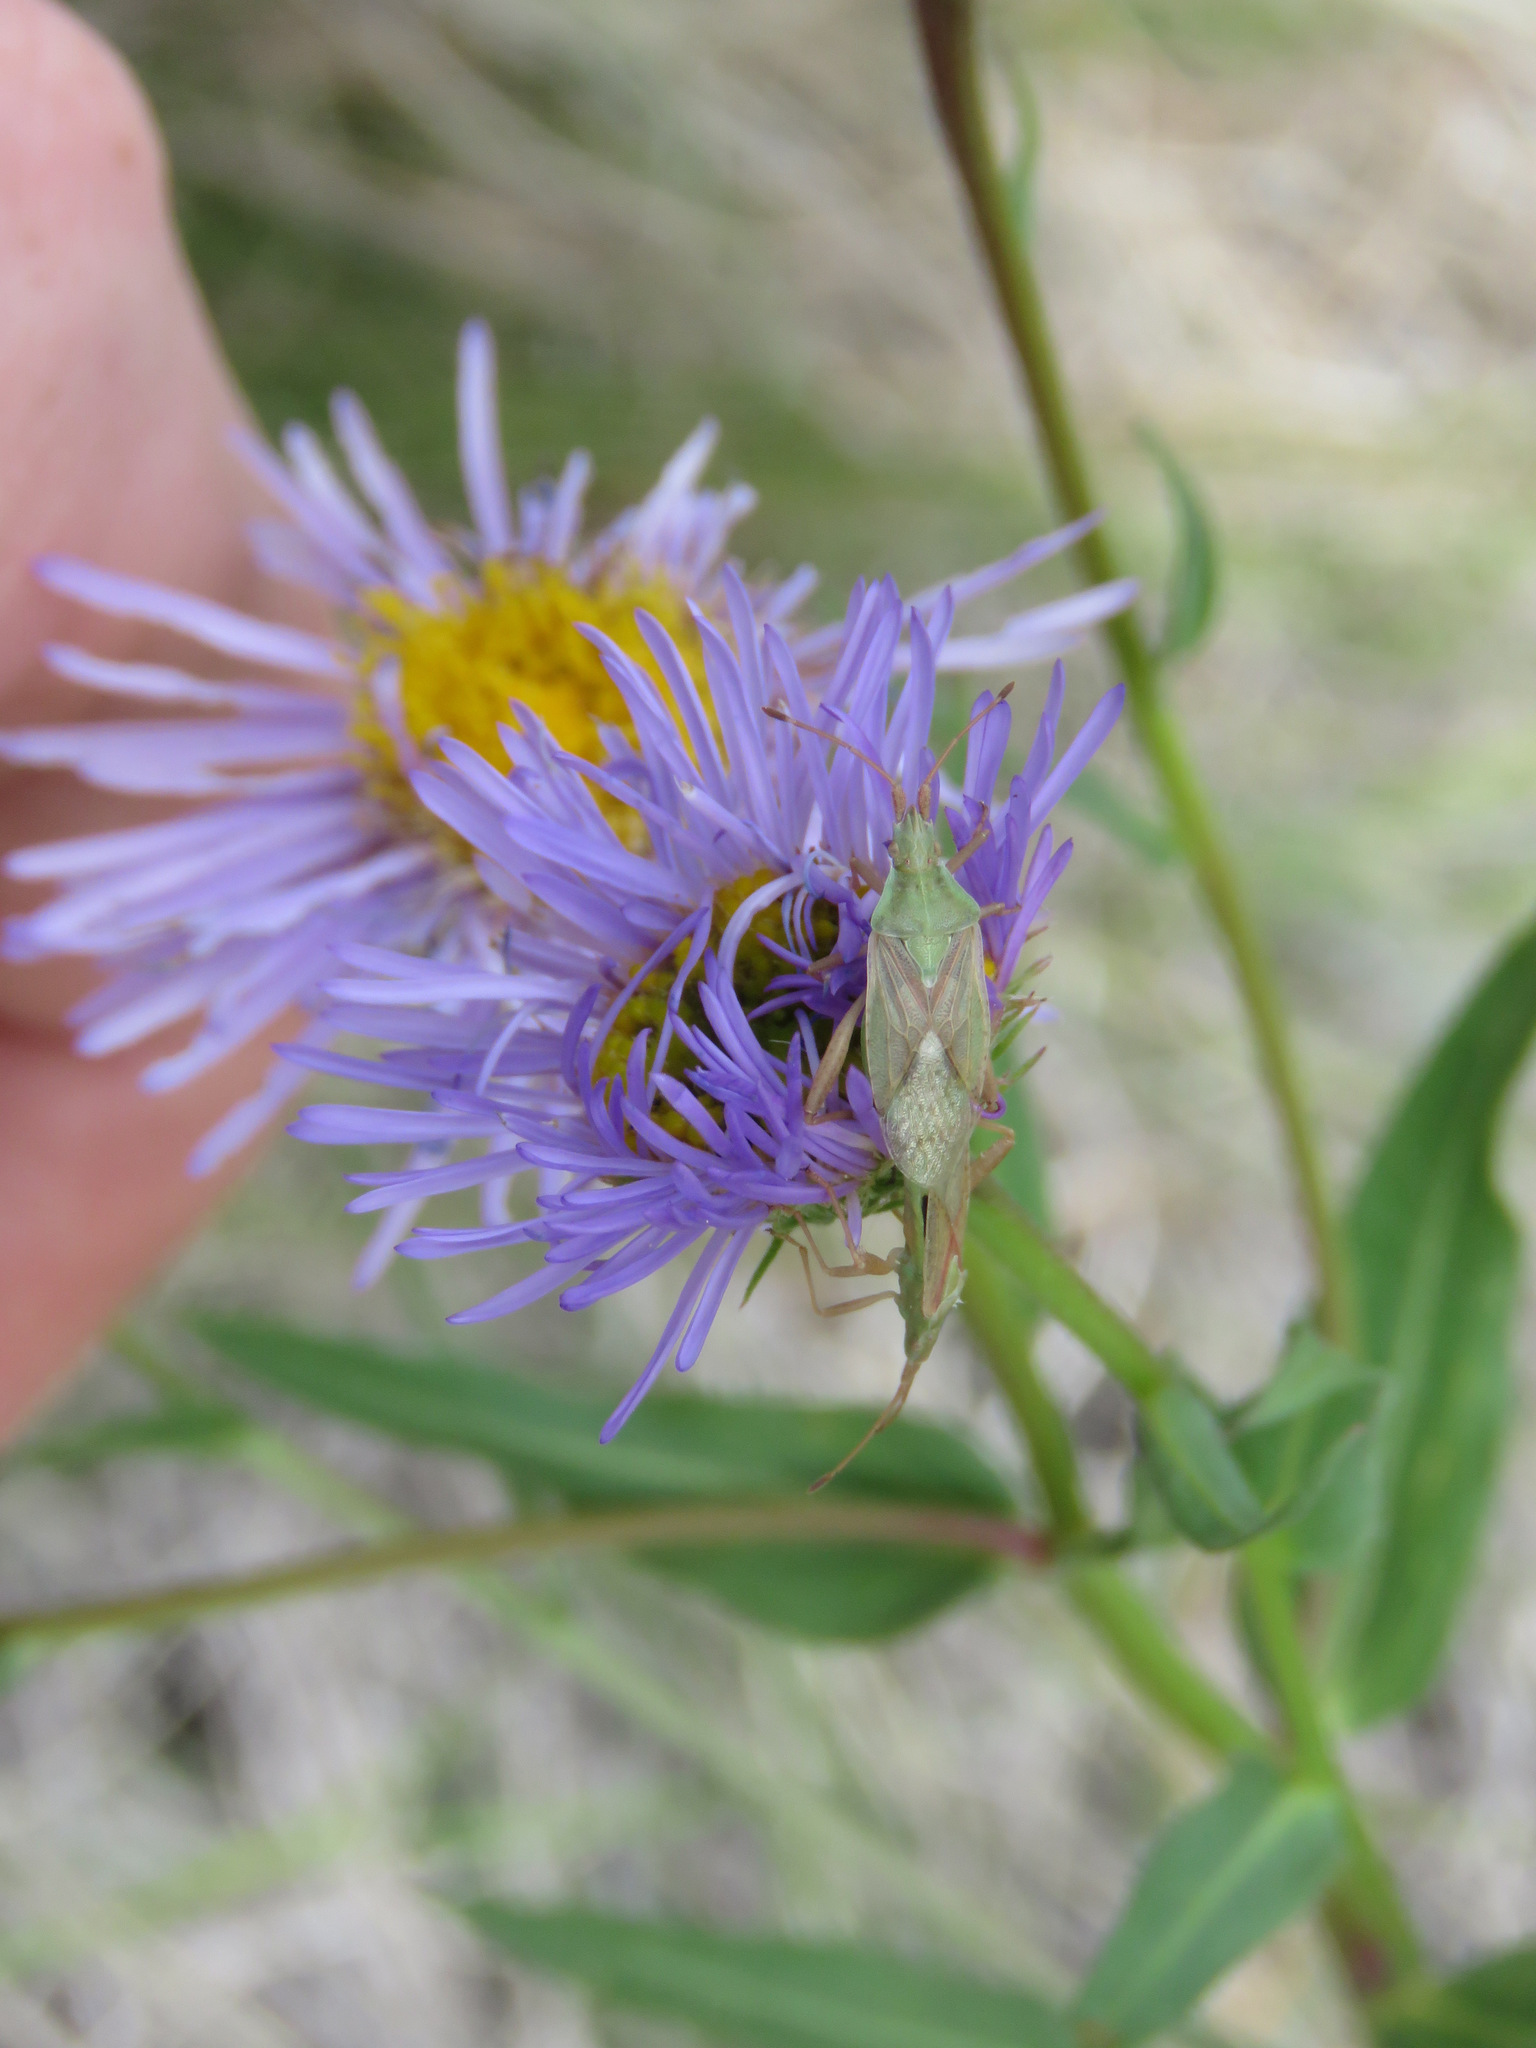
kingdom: Animalia
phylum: Arthropoda
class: Insecta
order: Hemiptera
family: Rhopalidae
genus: Harmostes
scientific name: Harmostes reflexulus
